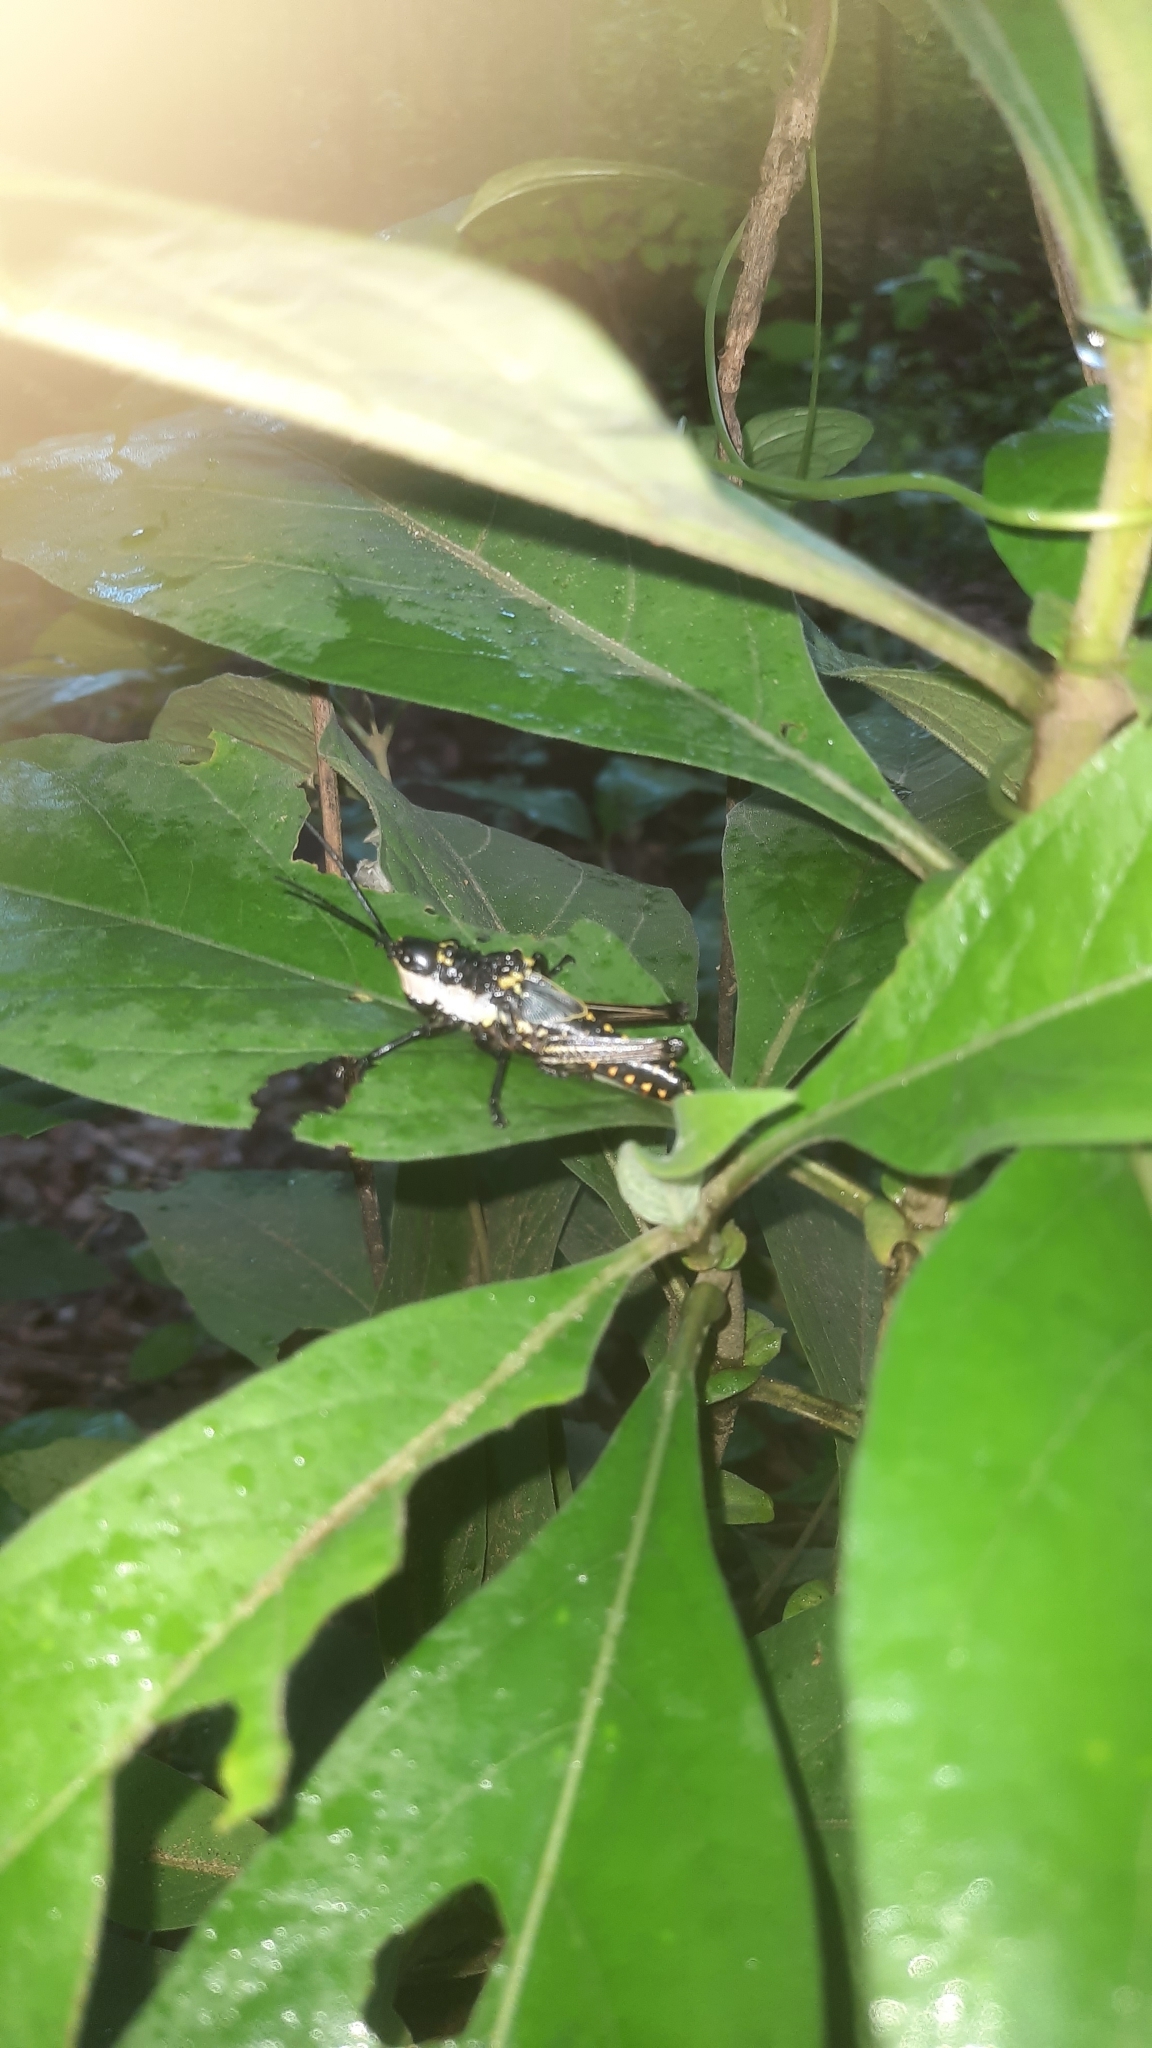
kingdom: Animalia
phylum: Arthropoda
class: Insecta
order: Orthoptera
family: Pyrgomorphidae
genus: Aularches
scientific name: Aularches miliaris
